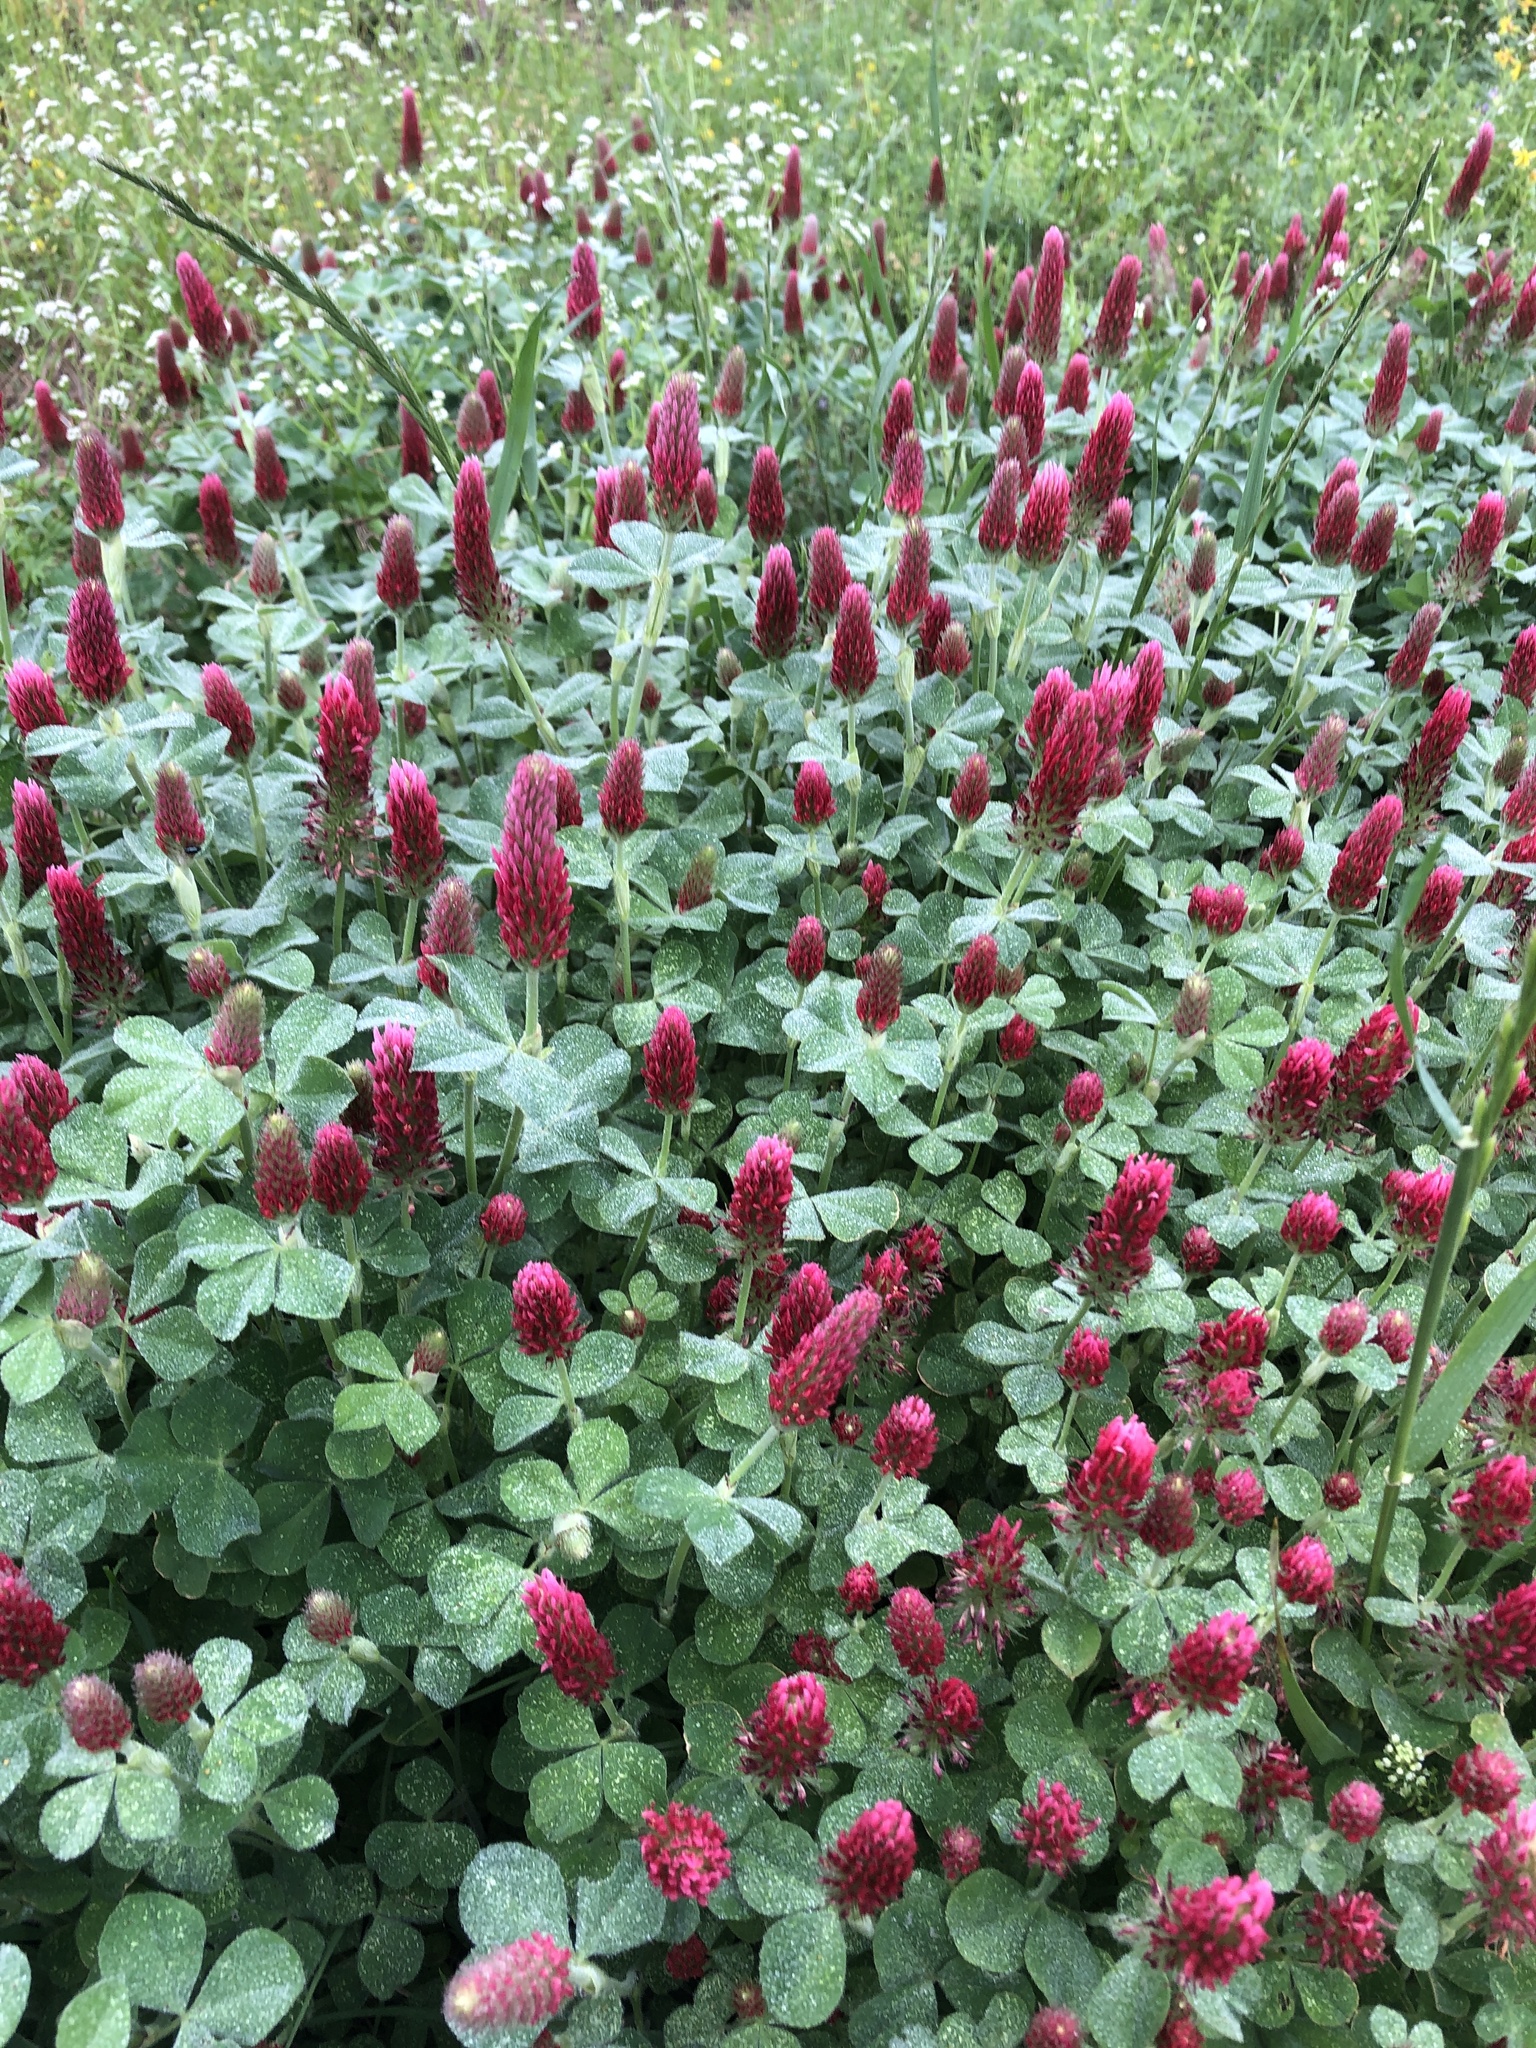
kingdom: Plantae
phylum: Tracheophyta
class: Magnoliopsida
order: Fabales
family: Fabaceae
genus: Trifolium
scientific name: Trifolium incarnatum
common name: Crimson clover
